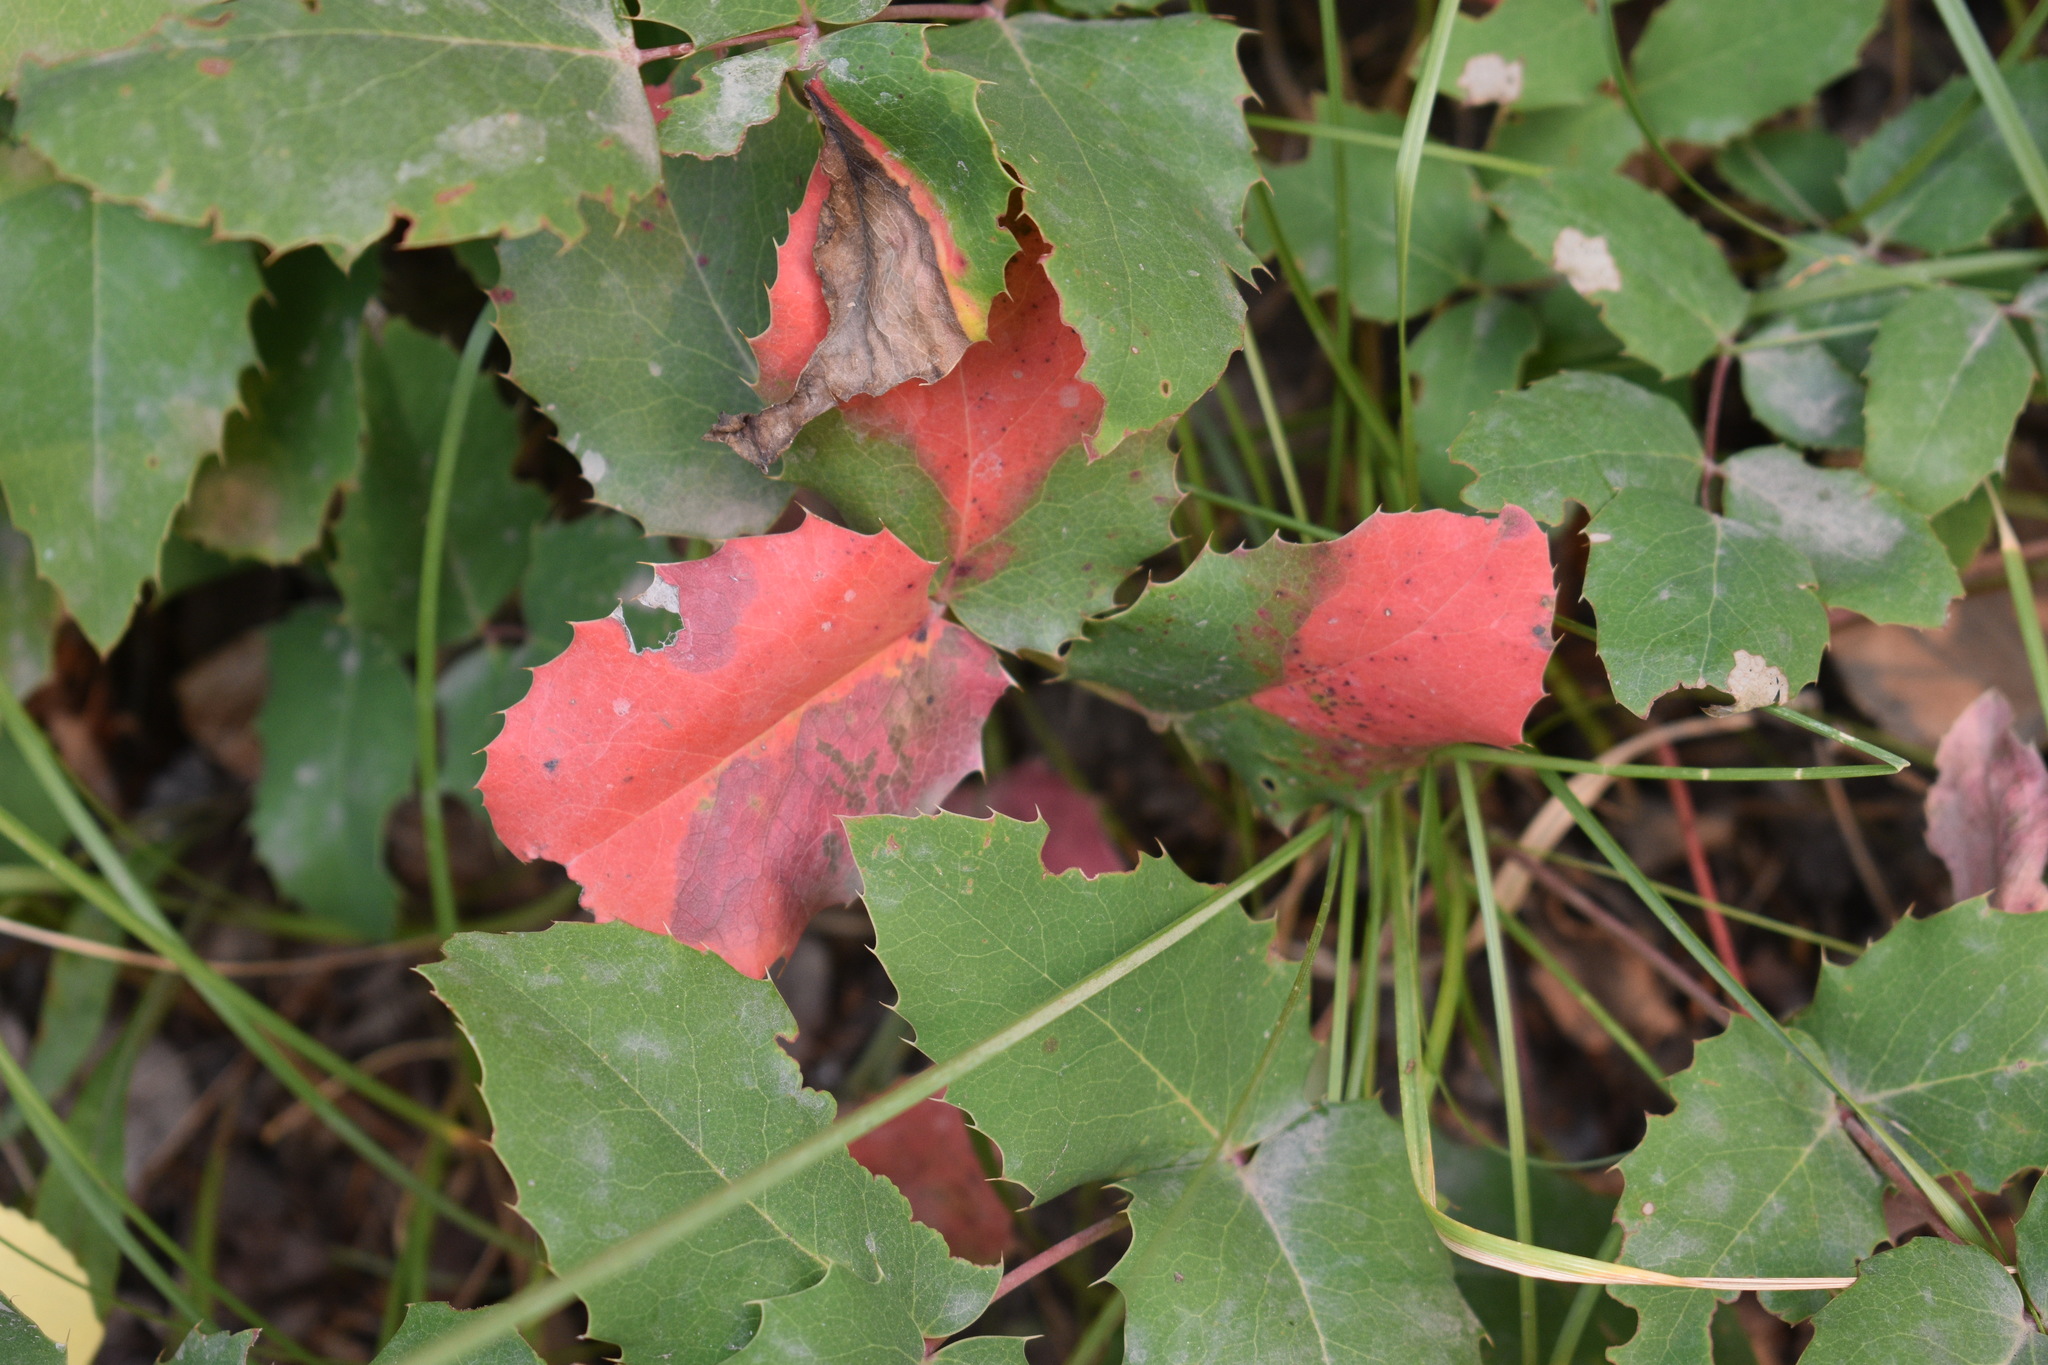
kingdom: Plantae
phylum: Tracheophyta
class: Magnoliopsida
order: Ranunculales
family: Berberidaceae
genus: Mahonia
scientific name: Mahonia repens
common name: Creeping oregon-grape
